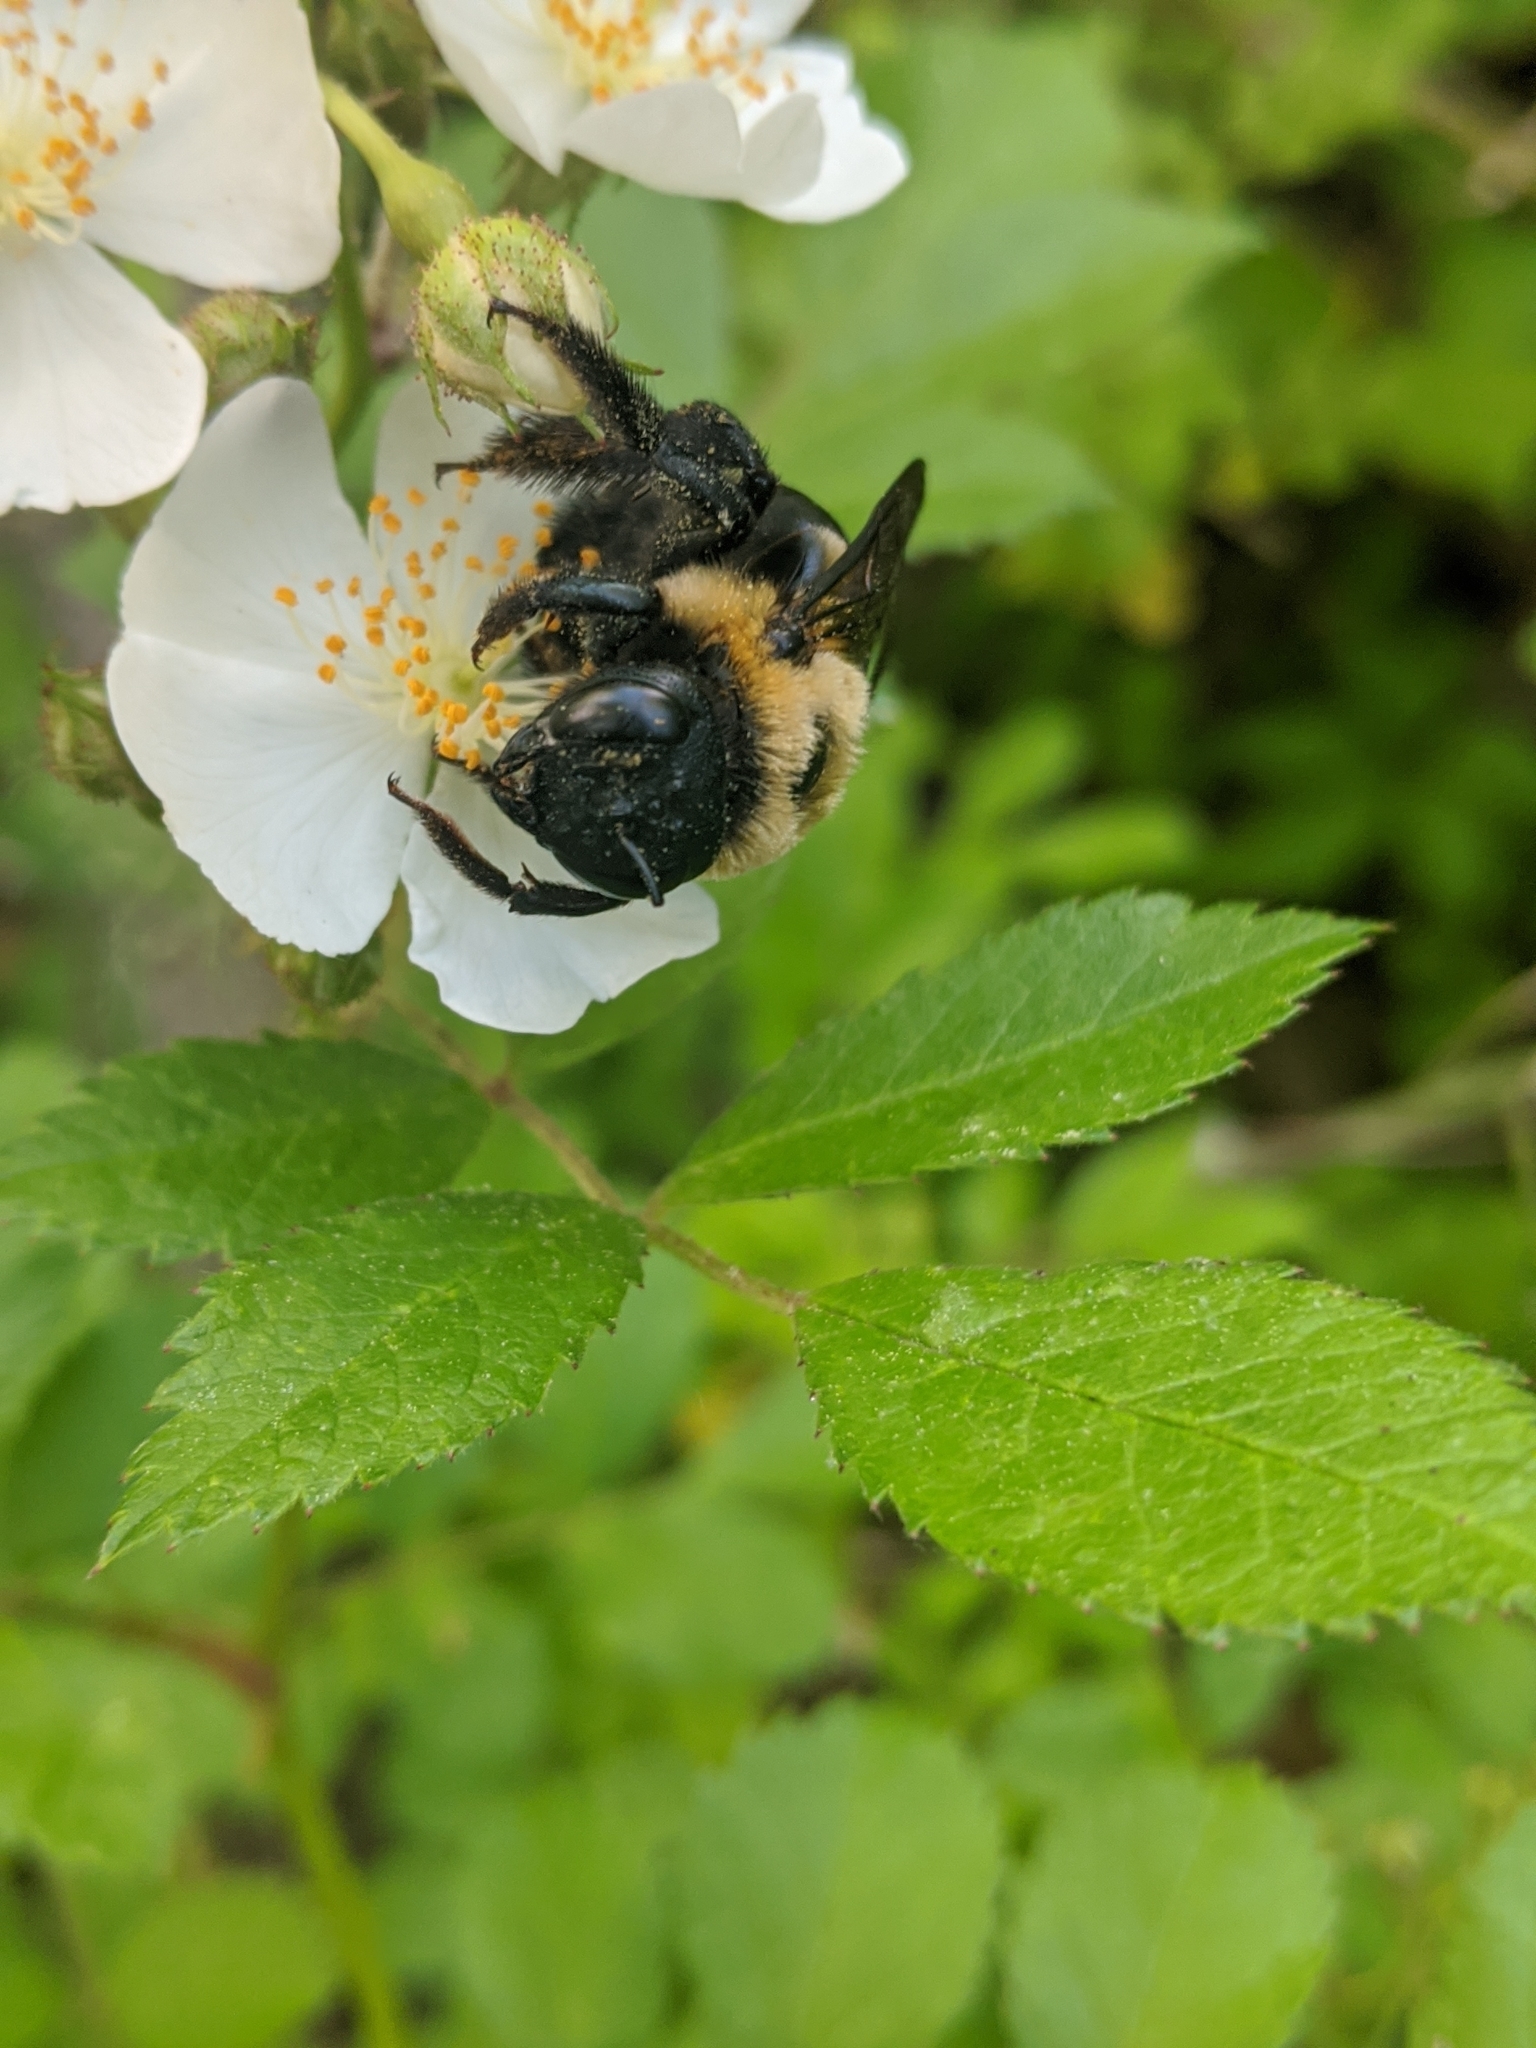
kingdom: Animalia
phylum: Arthropoda
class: Insecta
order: Hymenoptera
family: Apidae
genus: Xylocopa
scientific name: Xylocopa virginica
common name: Carpenter bee
